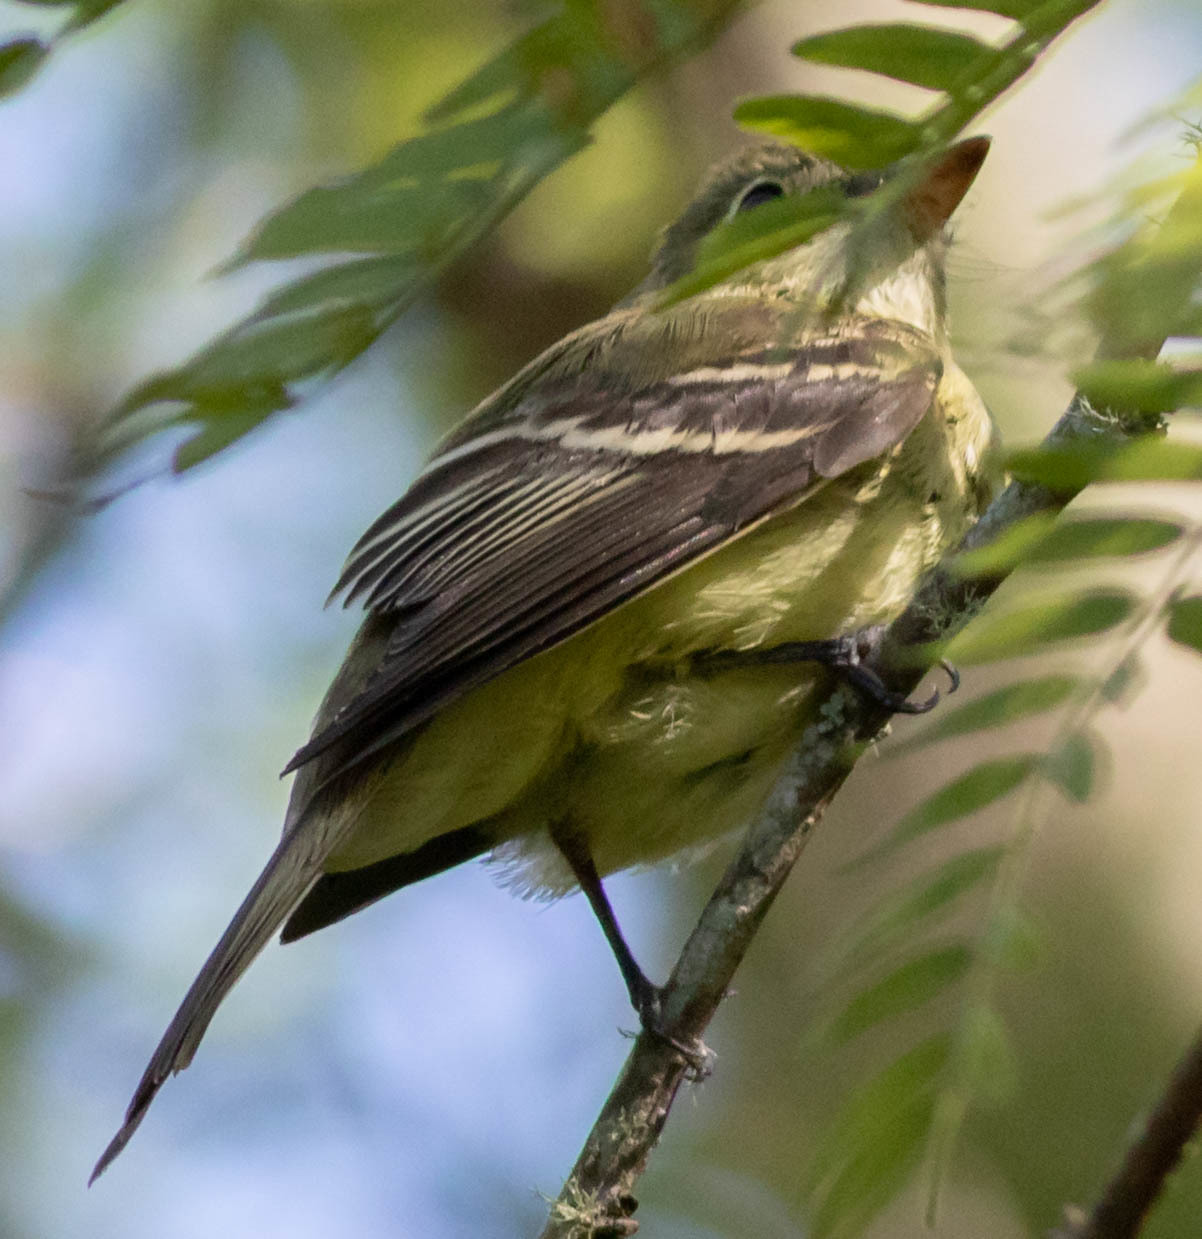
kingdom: Animalia
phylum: Chordata
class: Aves
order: Passeriformes
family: Tyrannidae
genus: Empidonax
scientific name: Empidonax virescens
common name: Acadian flycatcher
